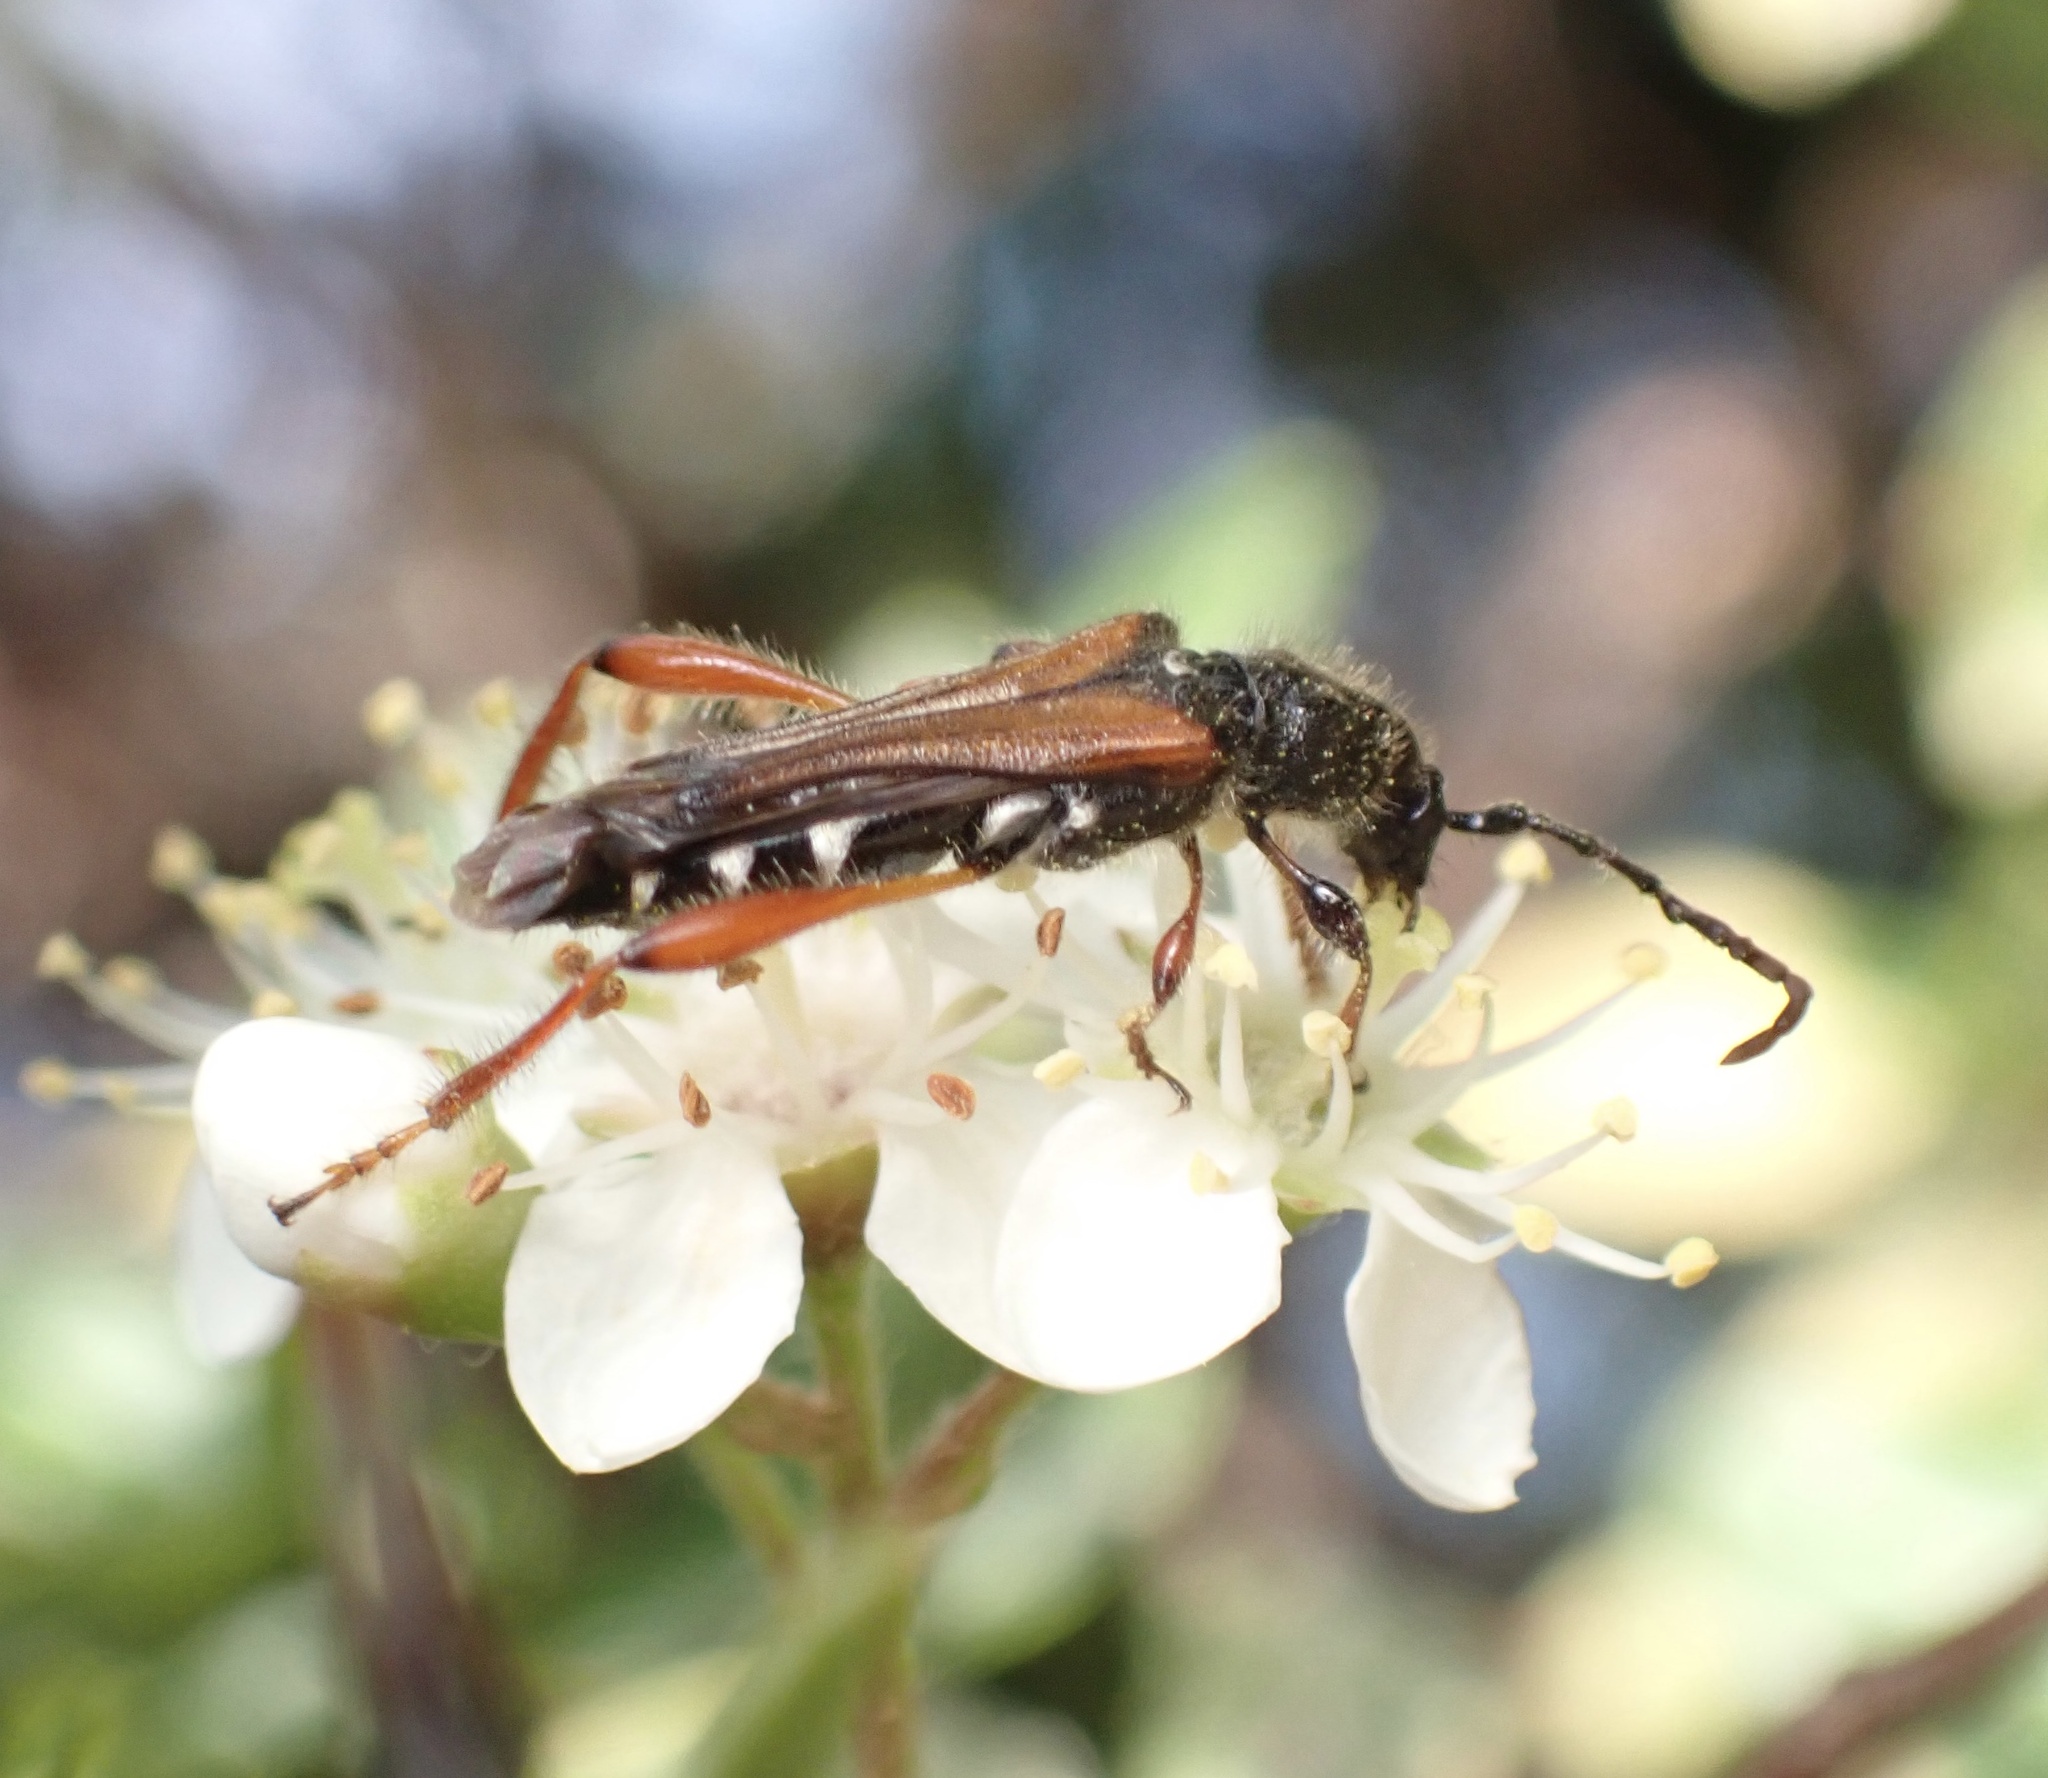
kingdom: Animalia
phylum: Arthropoda
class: Insecta
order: Coleoptera
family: Cerambycidae
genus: Stenopterus
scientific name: Stenopterus creticus
